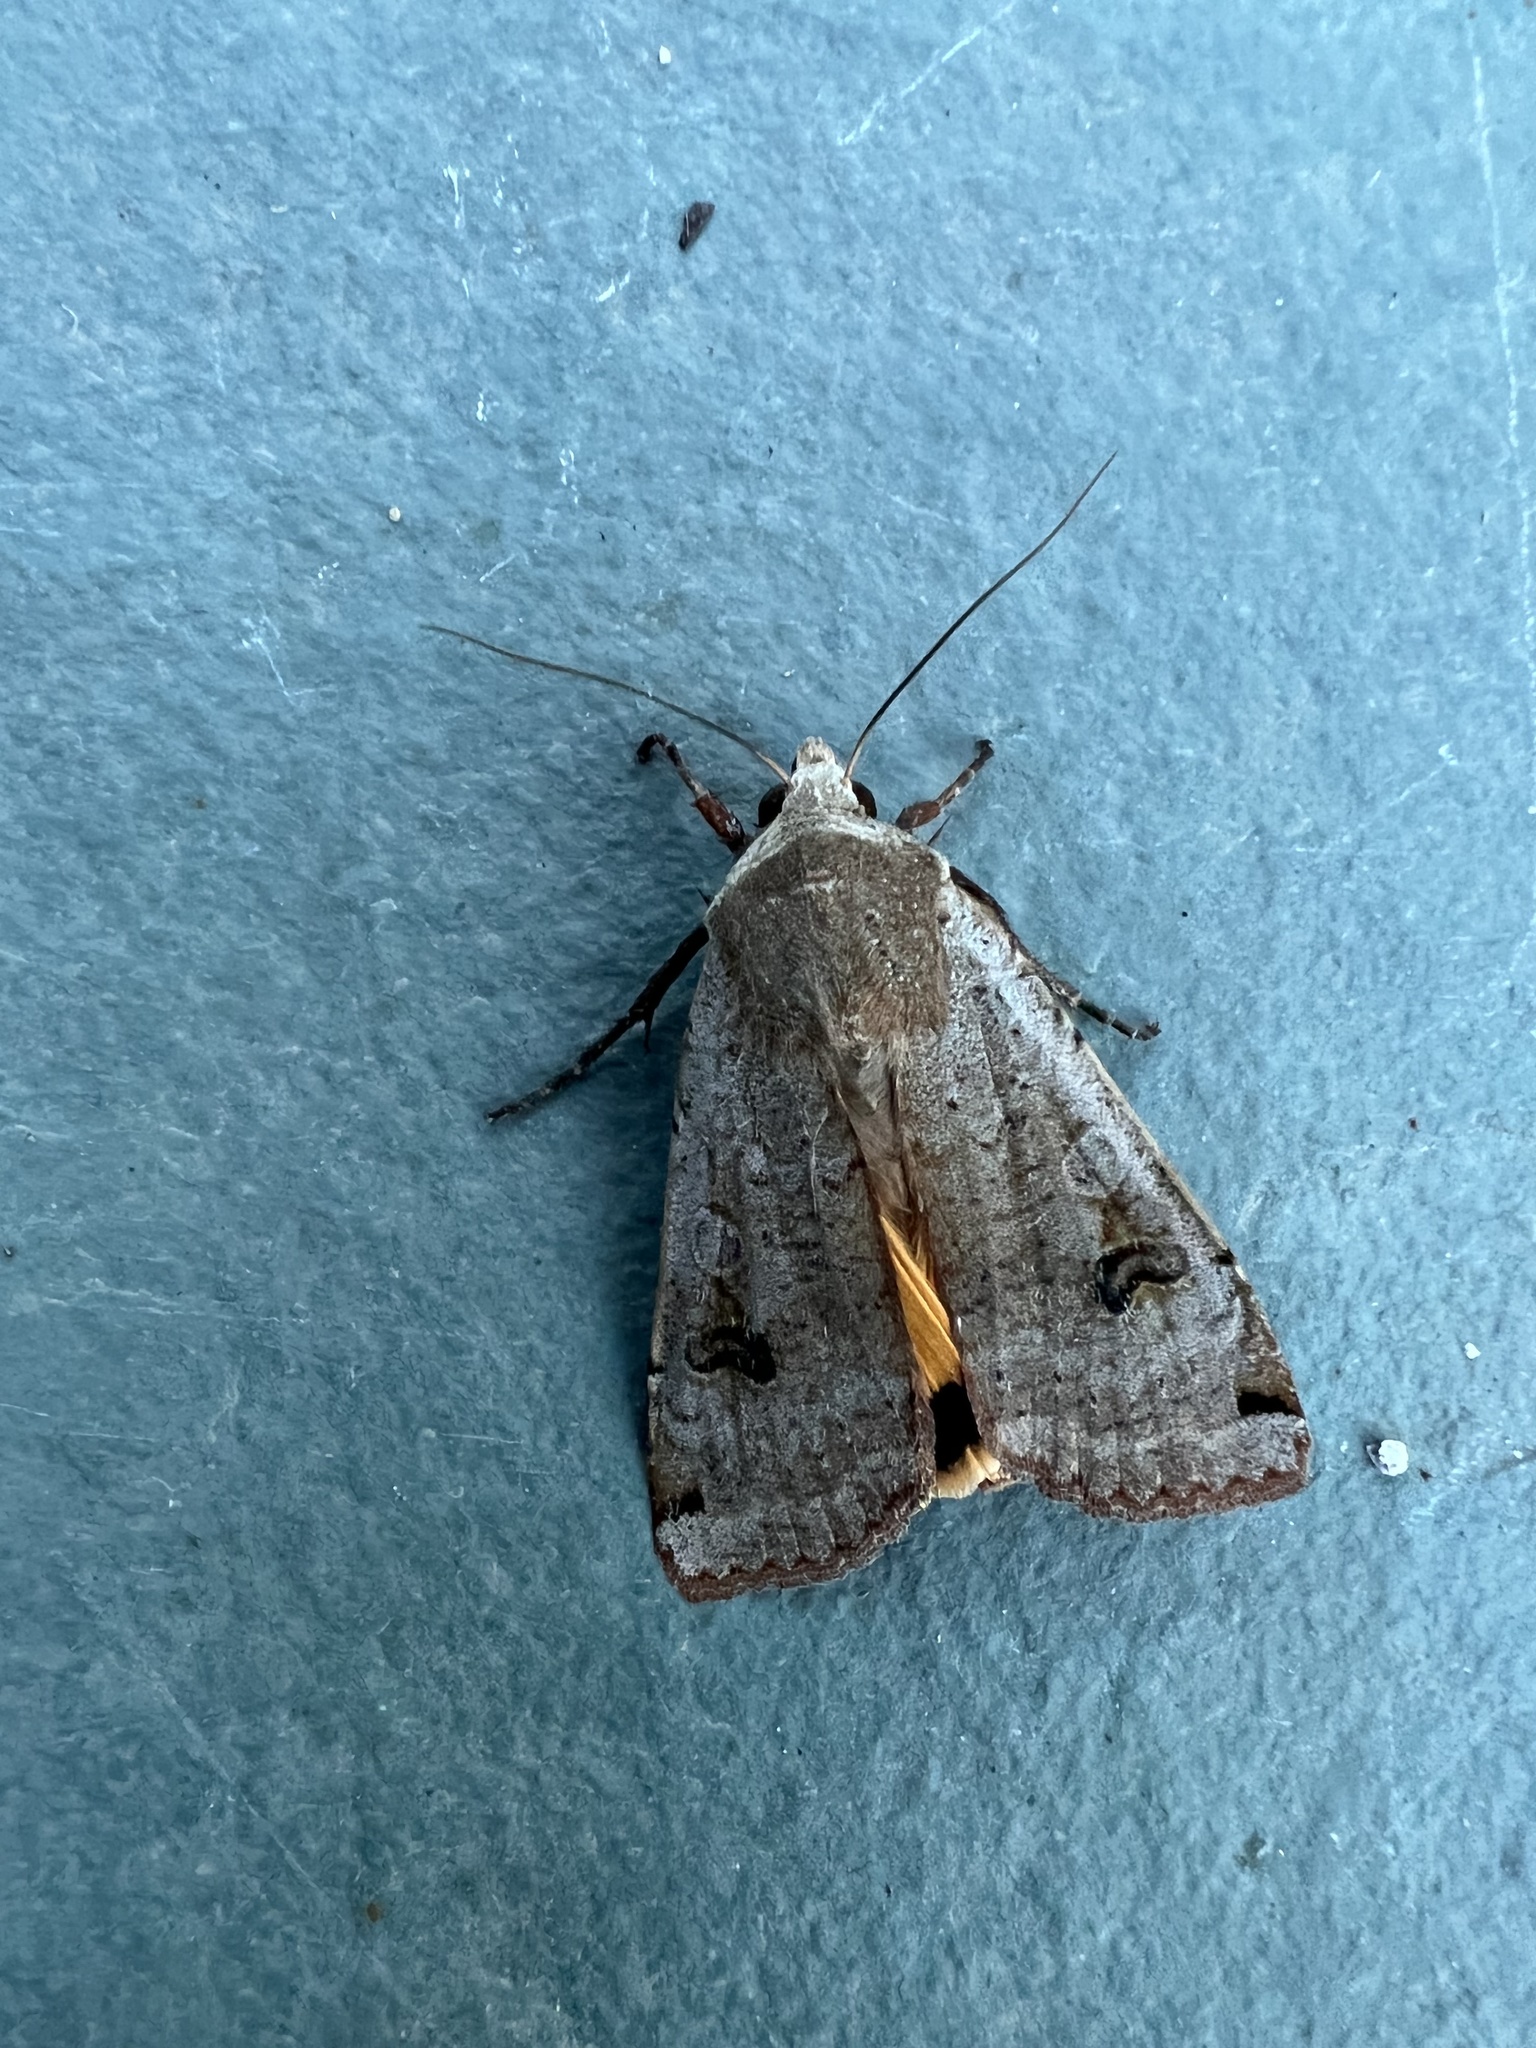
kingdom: Animalia
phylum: Arthropoda
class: Insecta
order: Lepidoptera
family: Noctuidae
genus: Noctua
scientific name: Noctua pronuba
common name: Large yellow underwing
